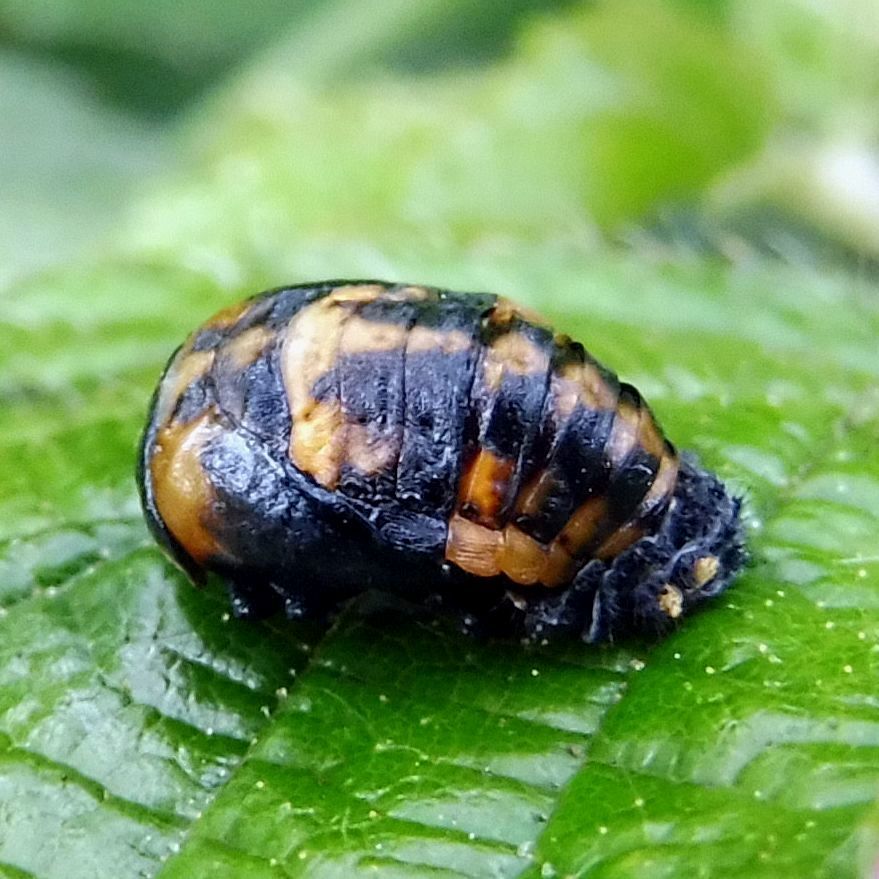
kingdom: Animalia
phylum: Arthropoda
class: Insecta
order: Coleoptera
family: Coccinellidae
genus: Coccinella
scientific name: Coccinella septempunctata
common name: Sevenspotted lady beetle
